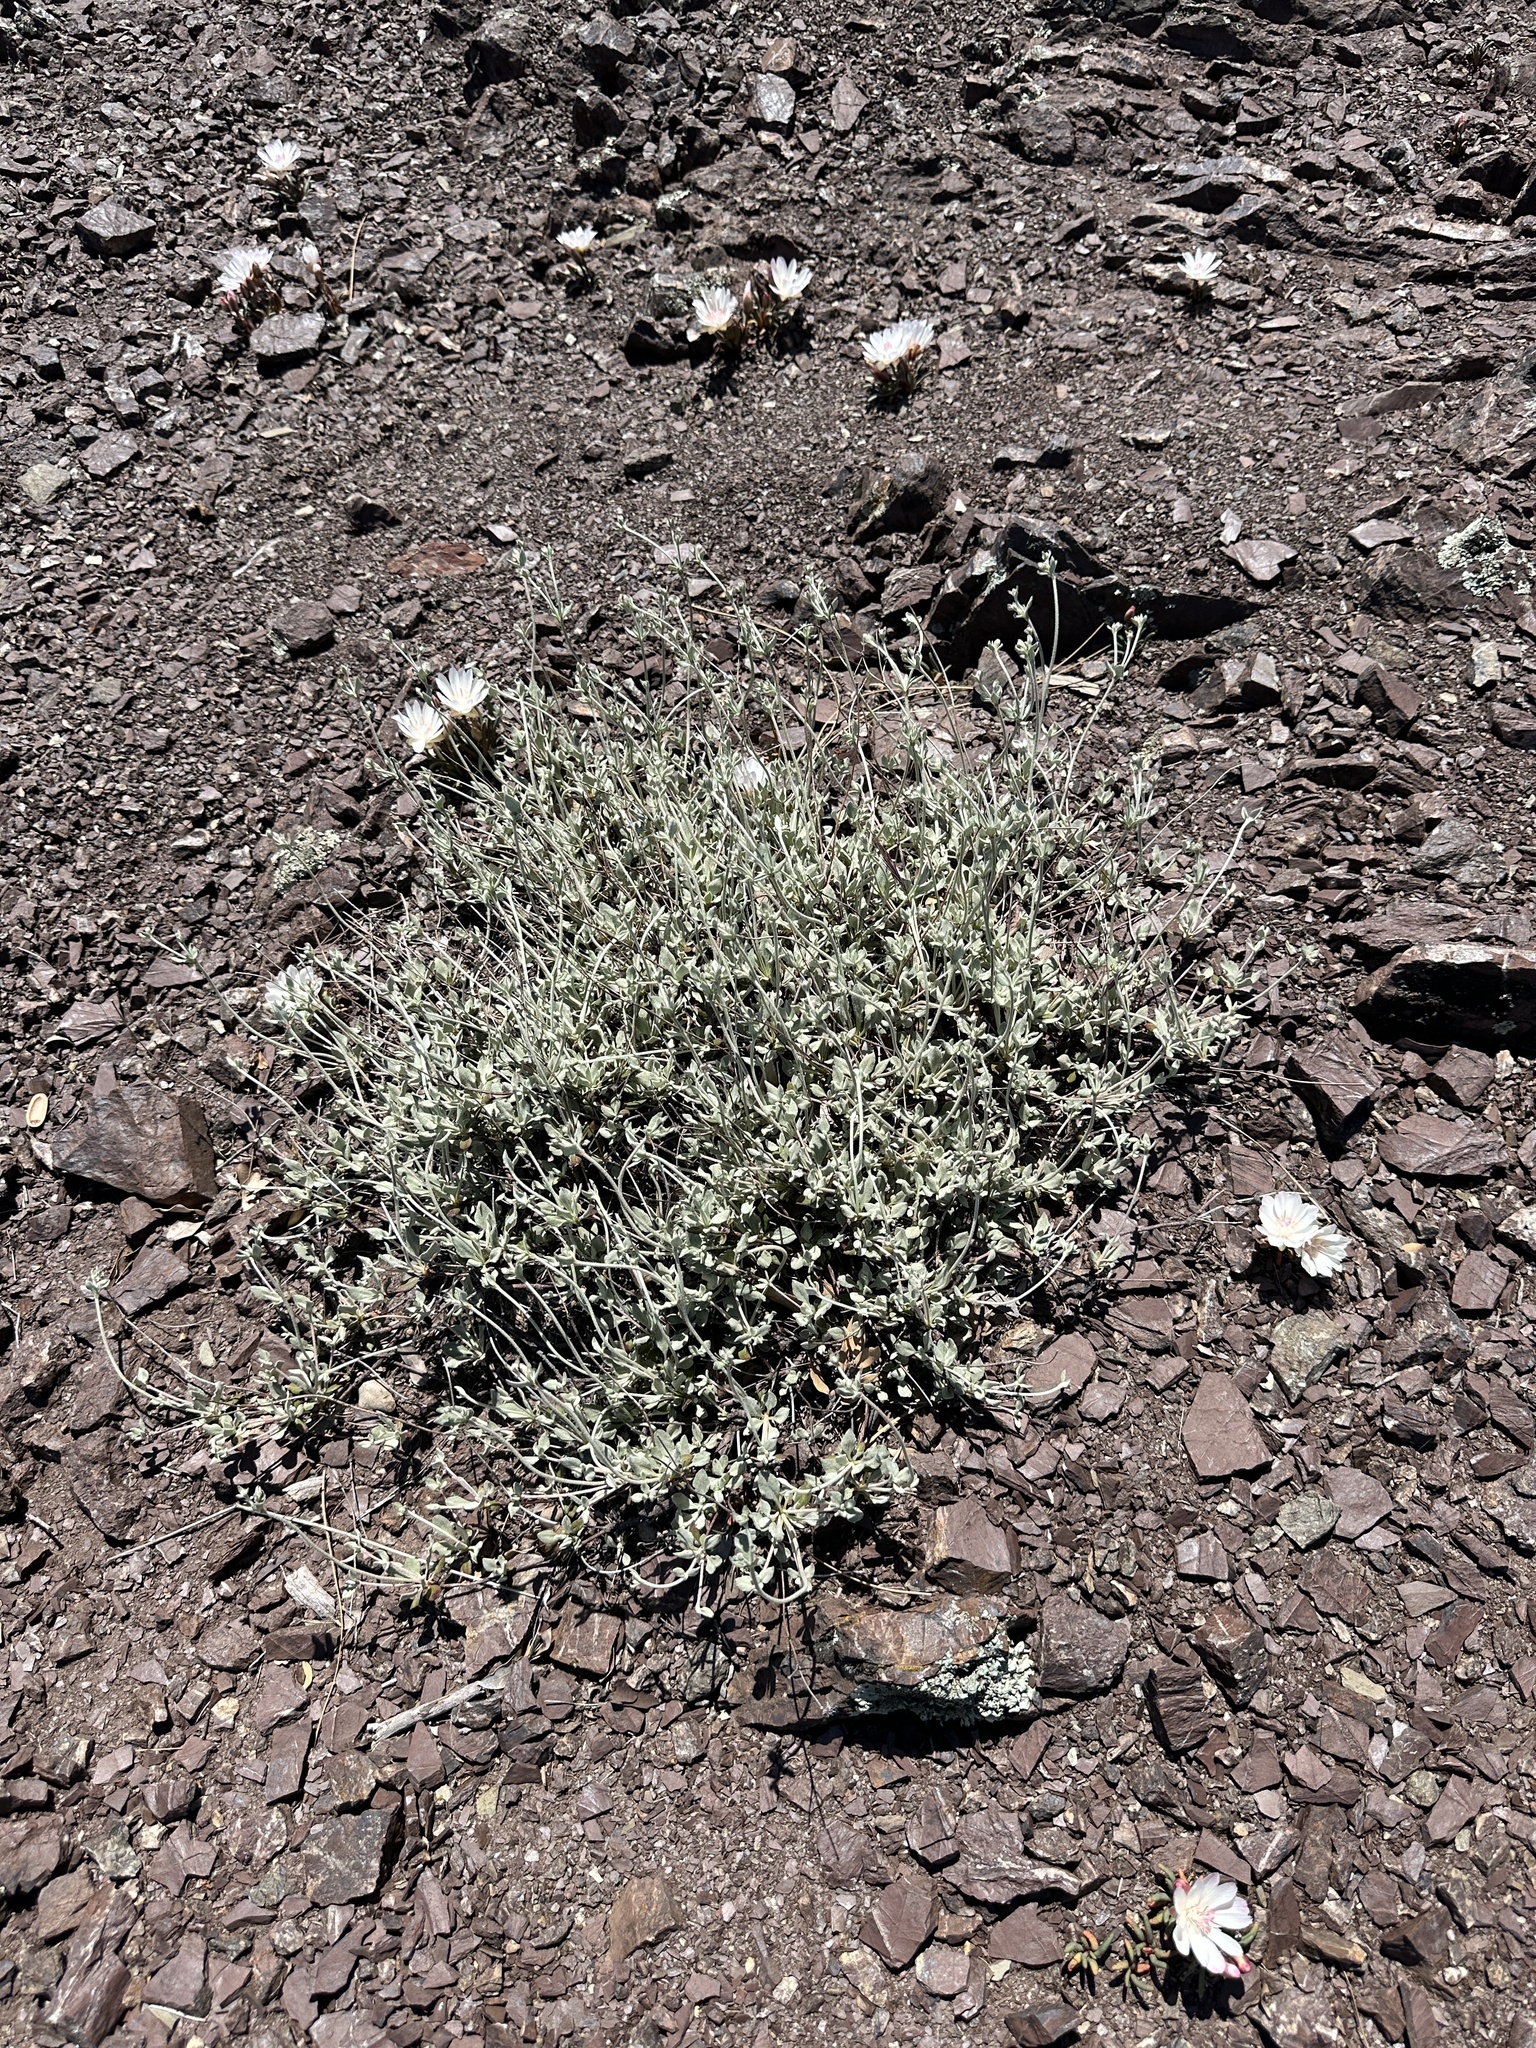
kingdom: Plantae
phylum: Tracheophyta
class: Magnoliopsida
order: Caryophyllales
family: Polygonaceae
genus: Eriogonum
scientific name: Eriogonum umbellatum
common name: Sulfur-buckwheat
